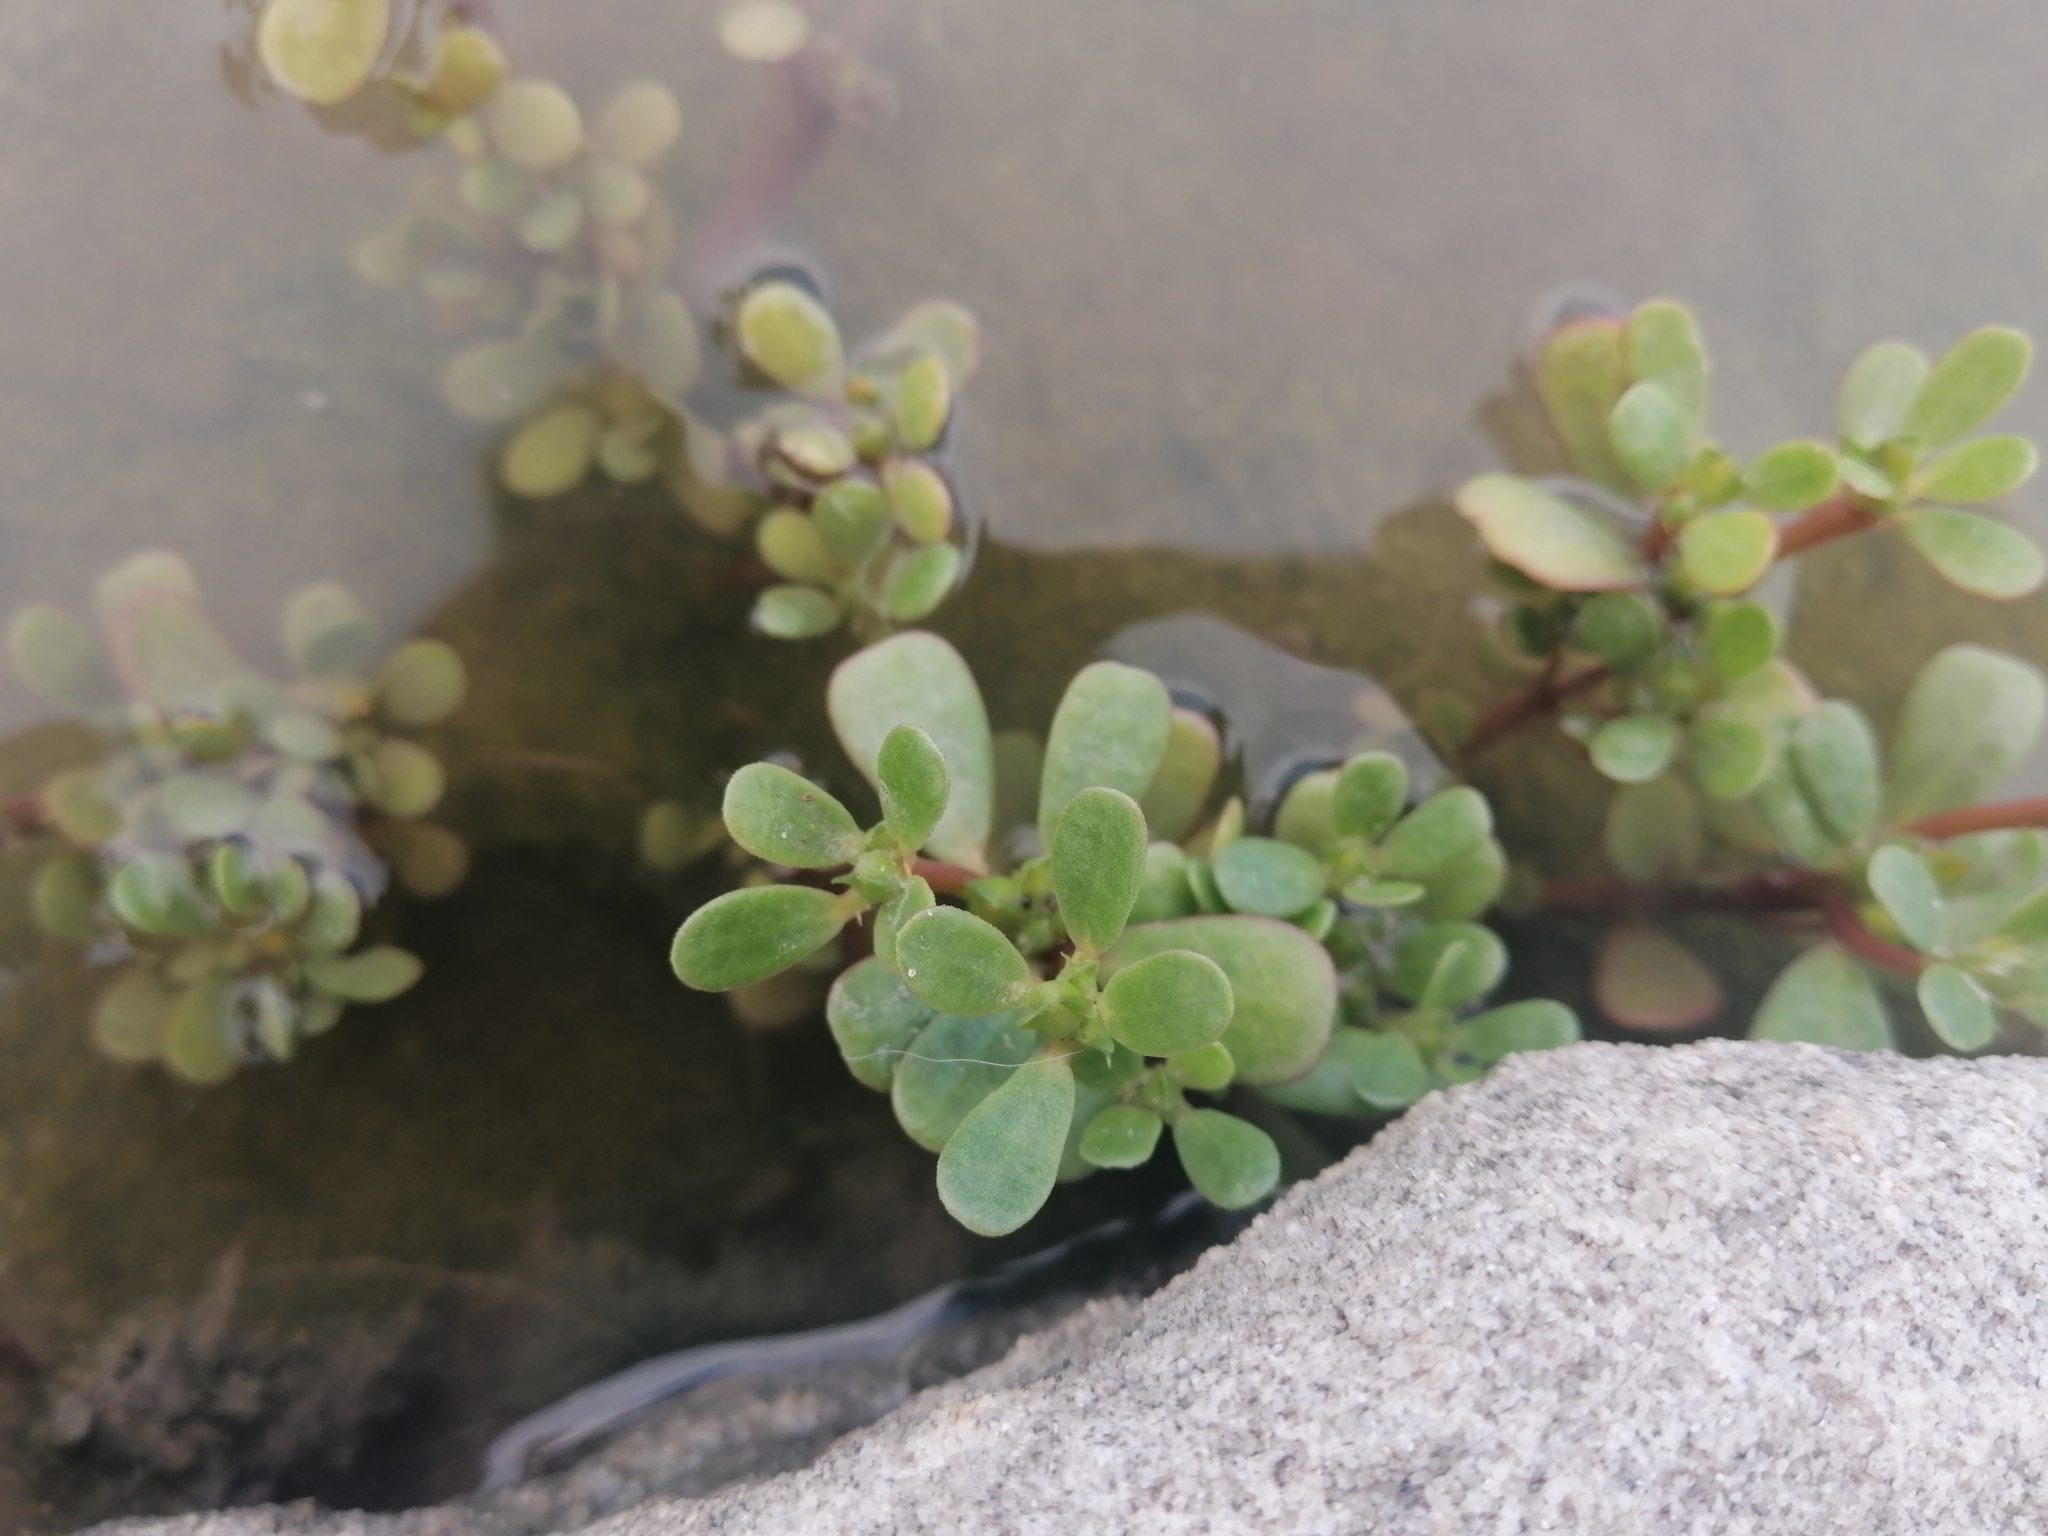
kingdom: Plantae
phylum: Tracheophyta
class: Magnoliopsida
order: Caryophyllales
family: Portulacaceae
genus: Portulaca
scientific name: Portulaca oleracea
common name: Common purslane
